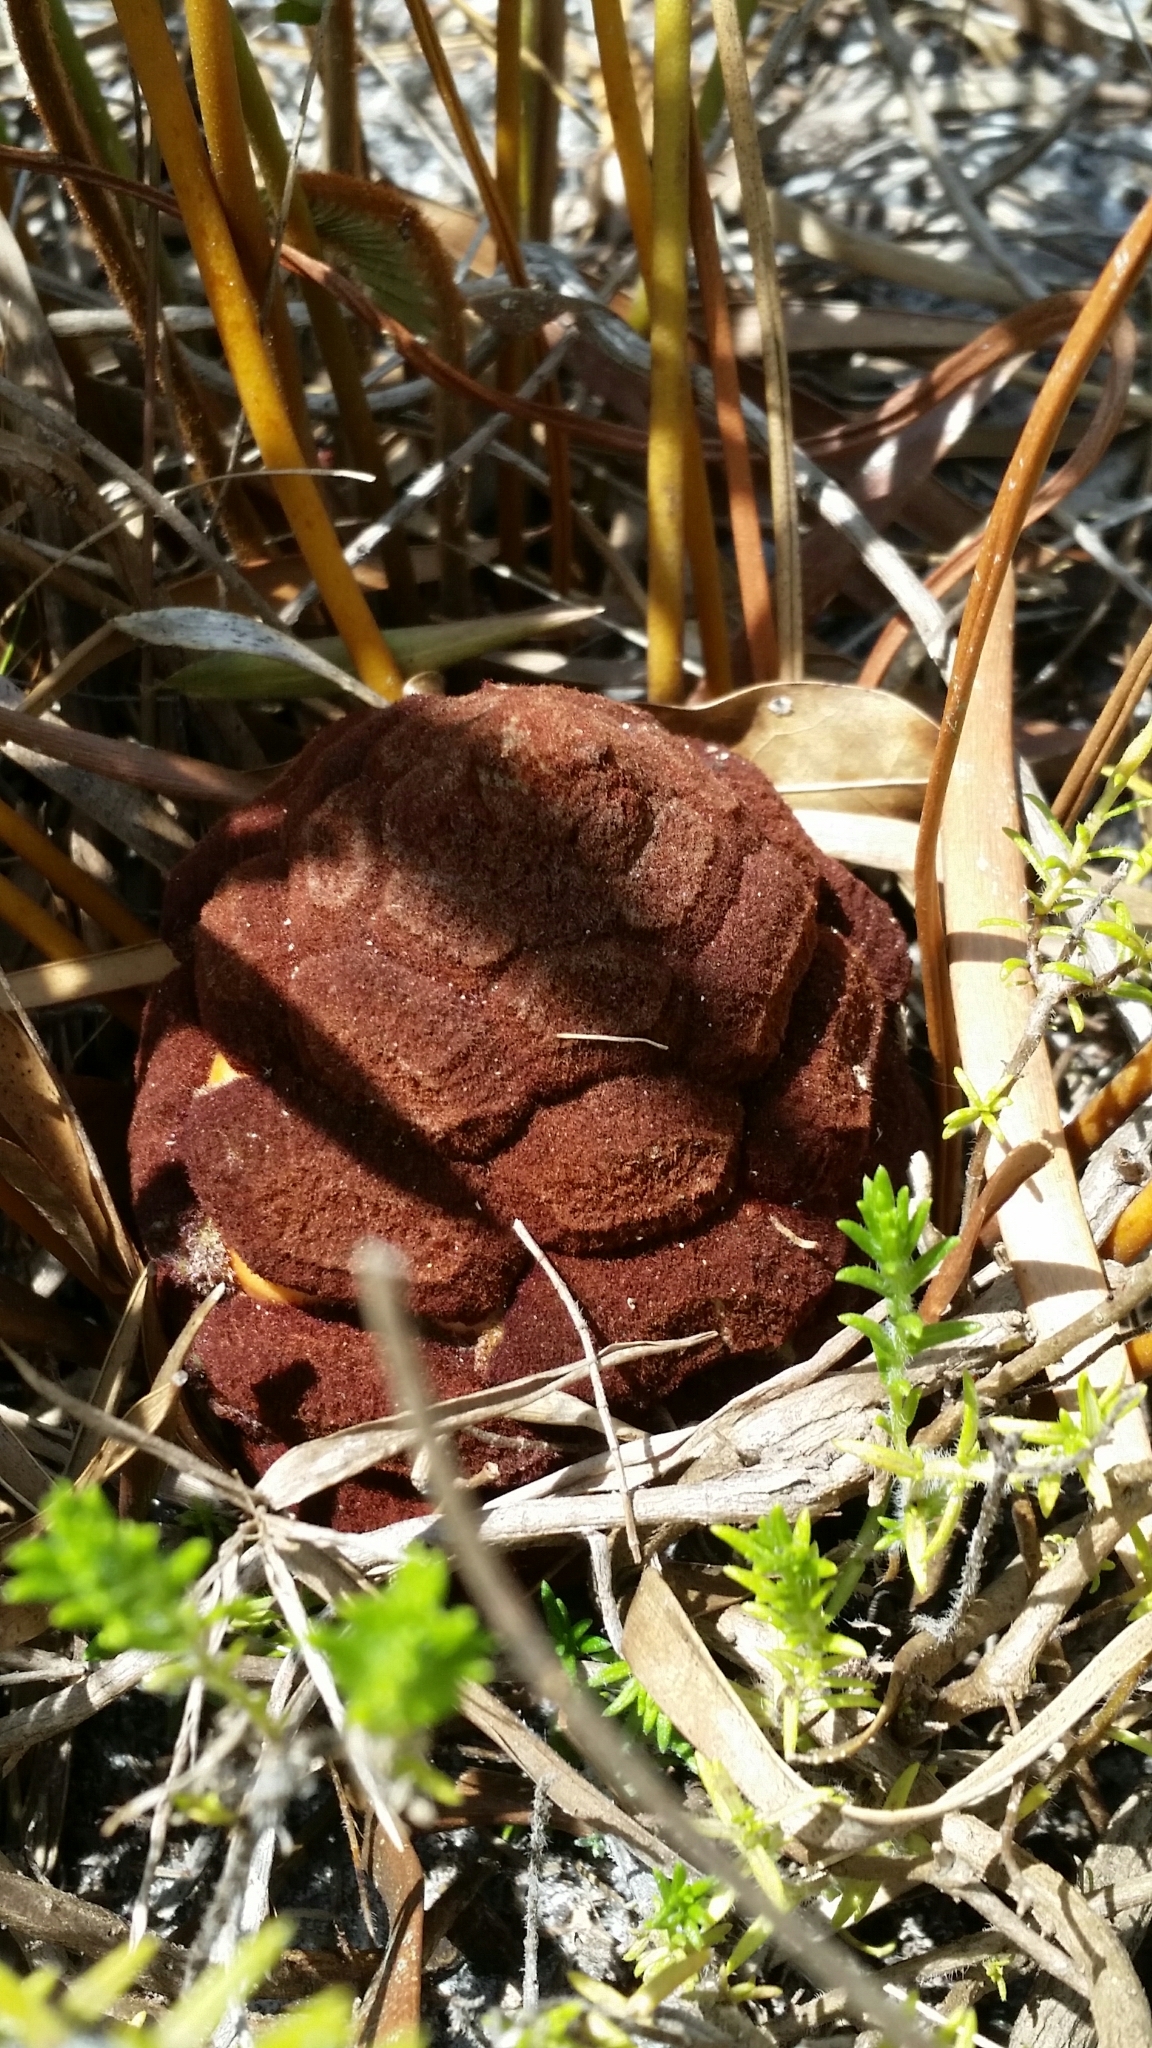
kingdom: Plantae
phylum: Tracheophyta
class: Cycadopsida
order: Cycadales
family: Zamiaceae
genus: Zamia
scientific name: Zamia integrifolia
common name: Florida arrowroot
